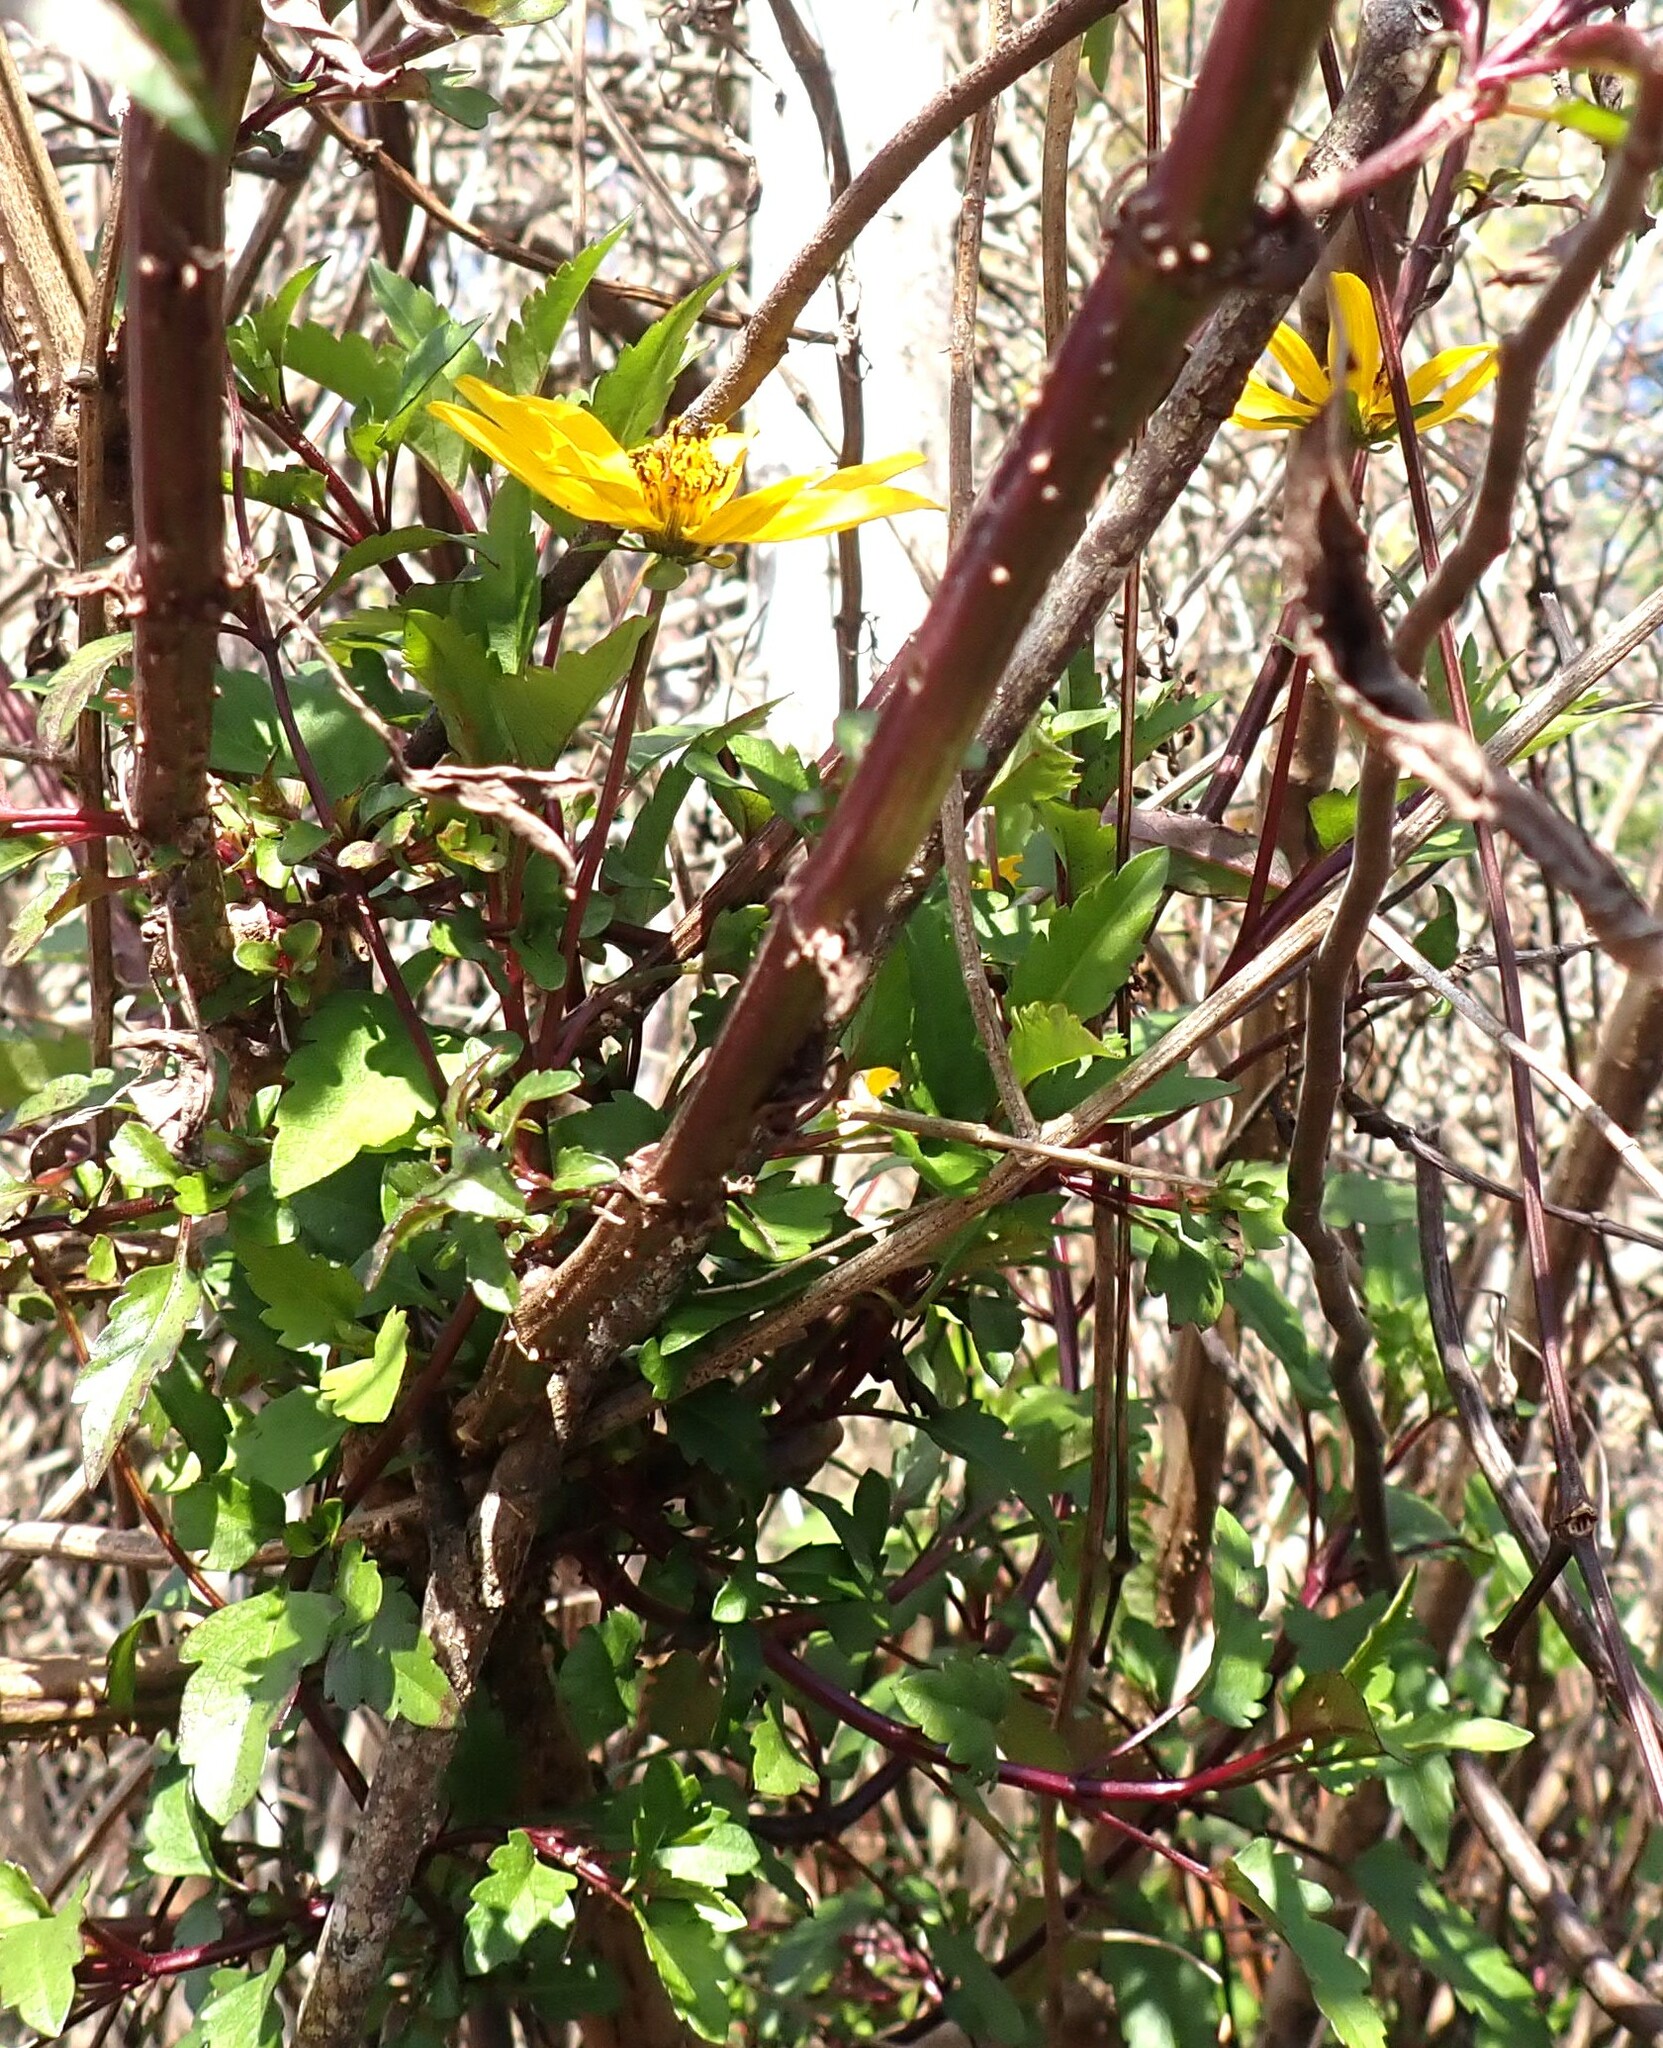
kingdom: Plantae
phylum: Tracheophyta
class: Magnoliopsida
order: Asterales
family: Asteraceae
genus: Bidens
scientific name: Bidens mitis
